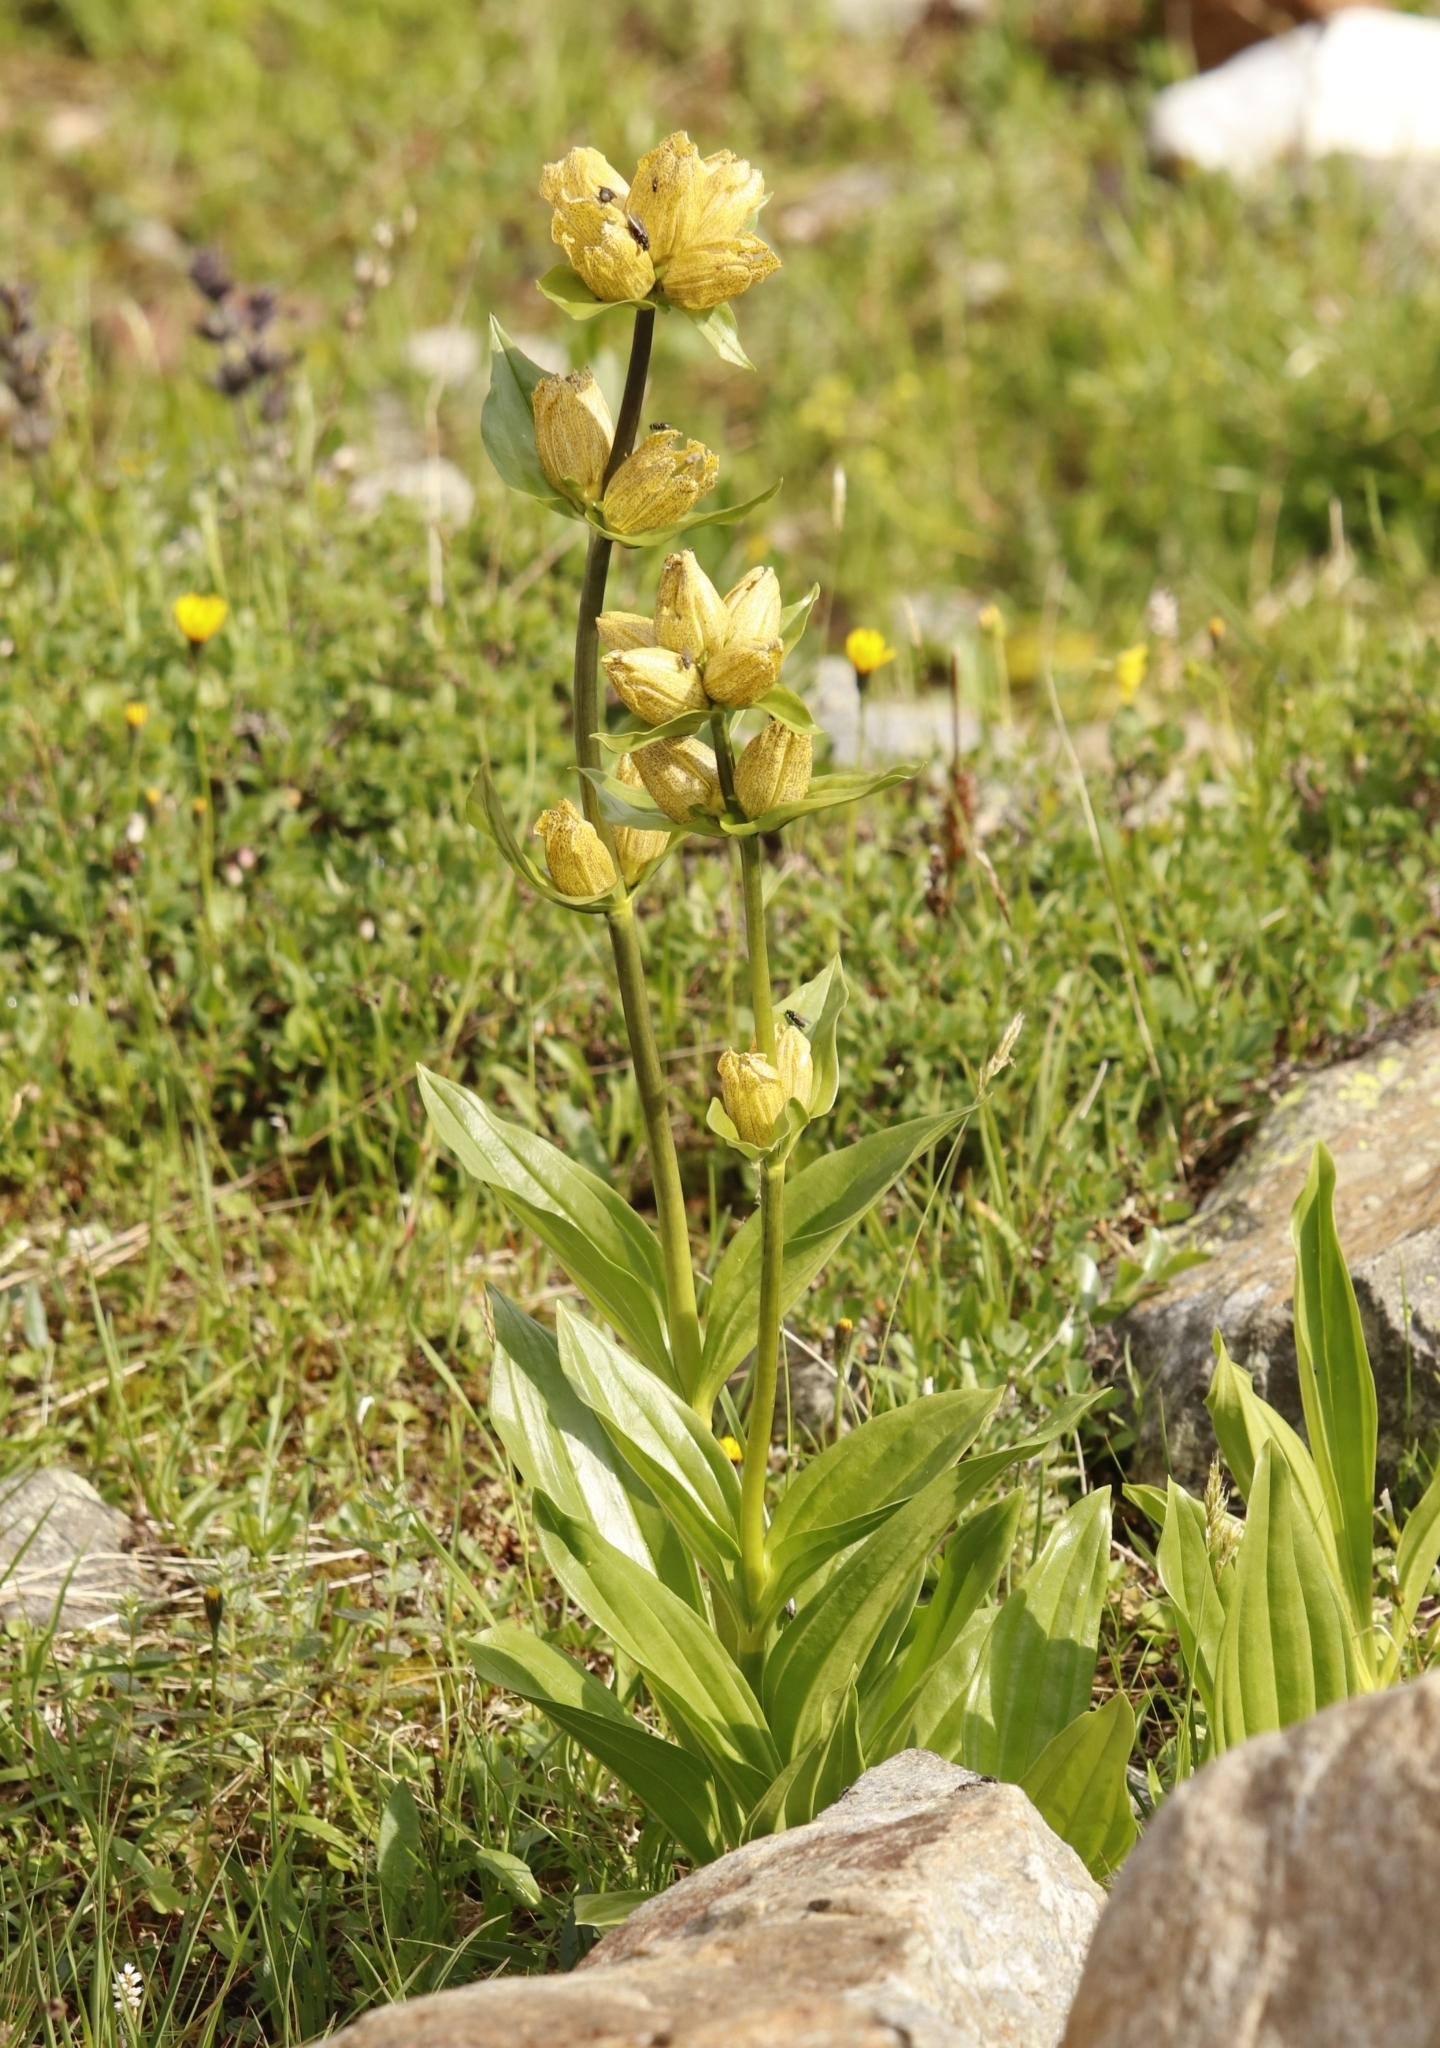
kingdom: Plantae
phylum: Tracheophyta
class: Magnoliopsida
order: Gentianales
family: Gentianaceae
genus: Gentiana
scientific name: Gentiana punctata
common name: Spotted gentian
